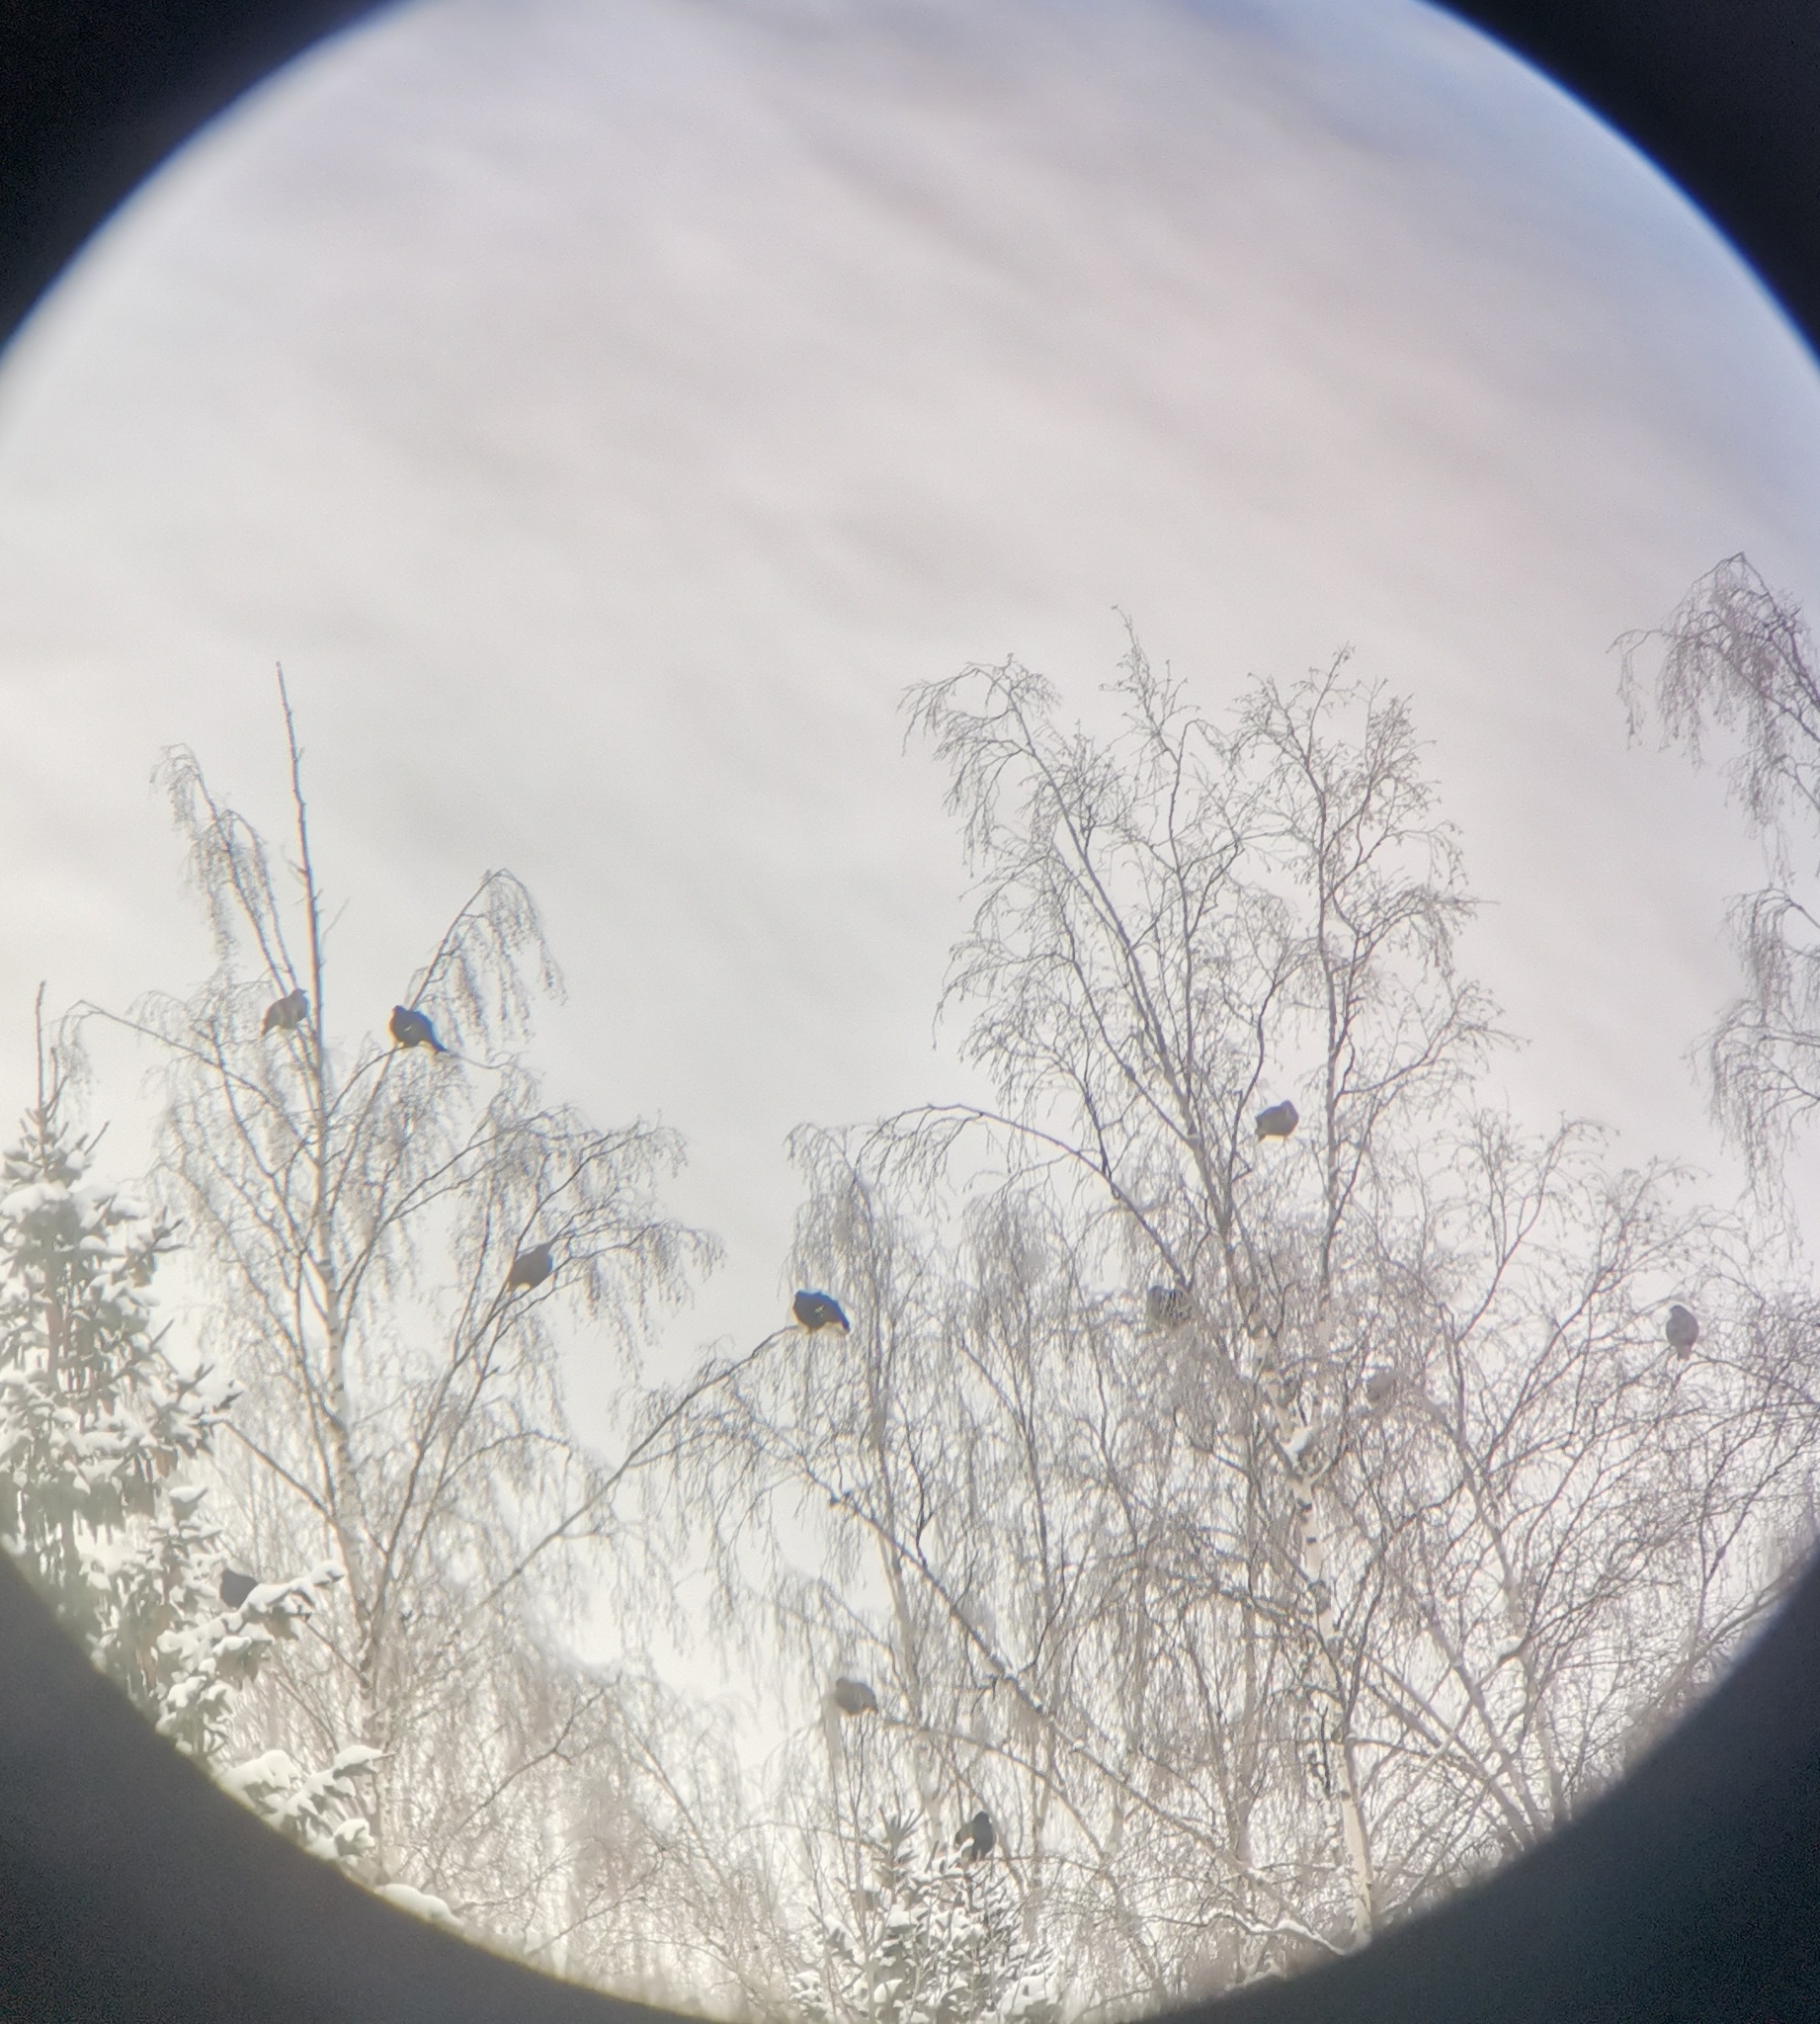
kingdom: Animalia
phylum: Chordata
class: Aves
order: Galliformes
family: Phasianidae
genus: Lyrurus
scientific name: Lyrurus tetrix
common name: Black grouse
